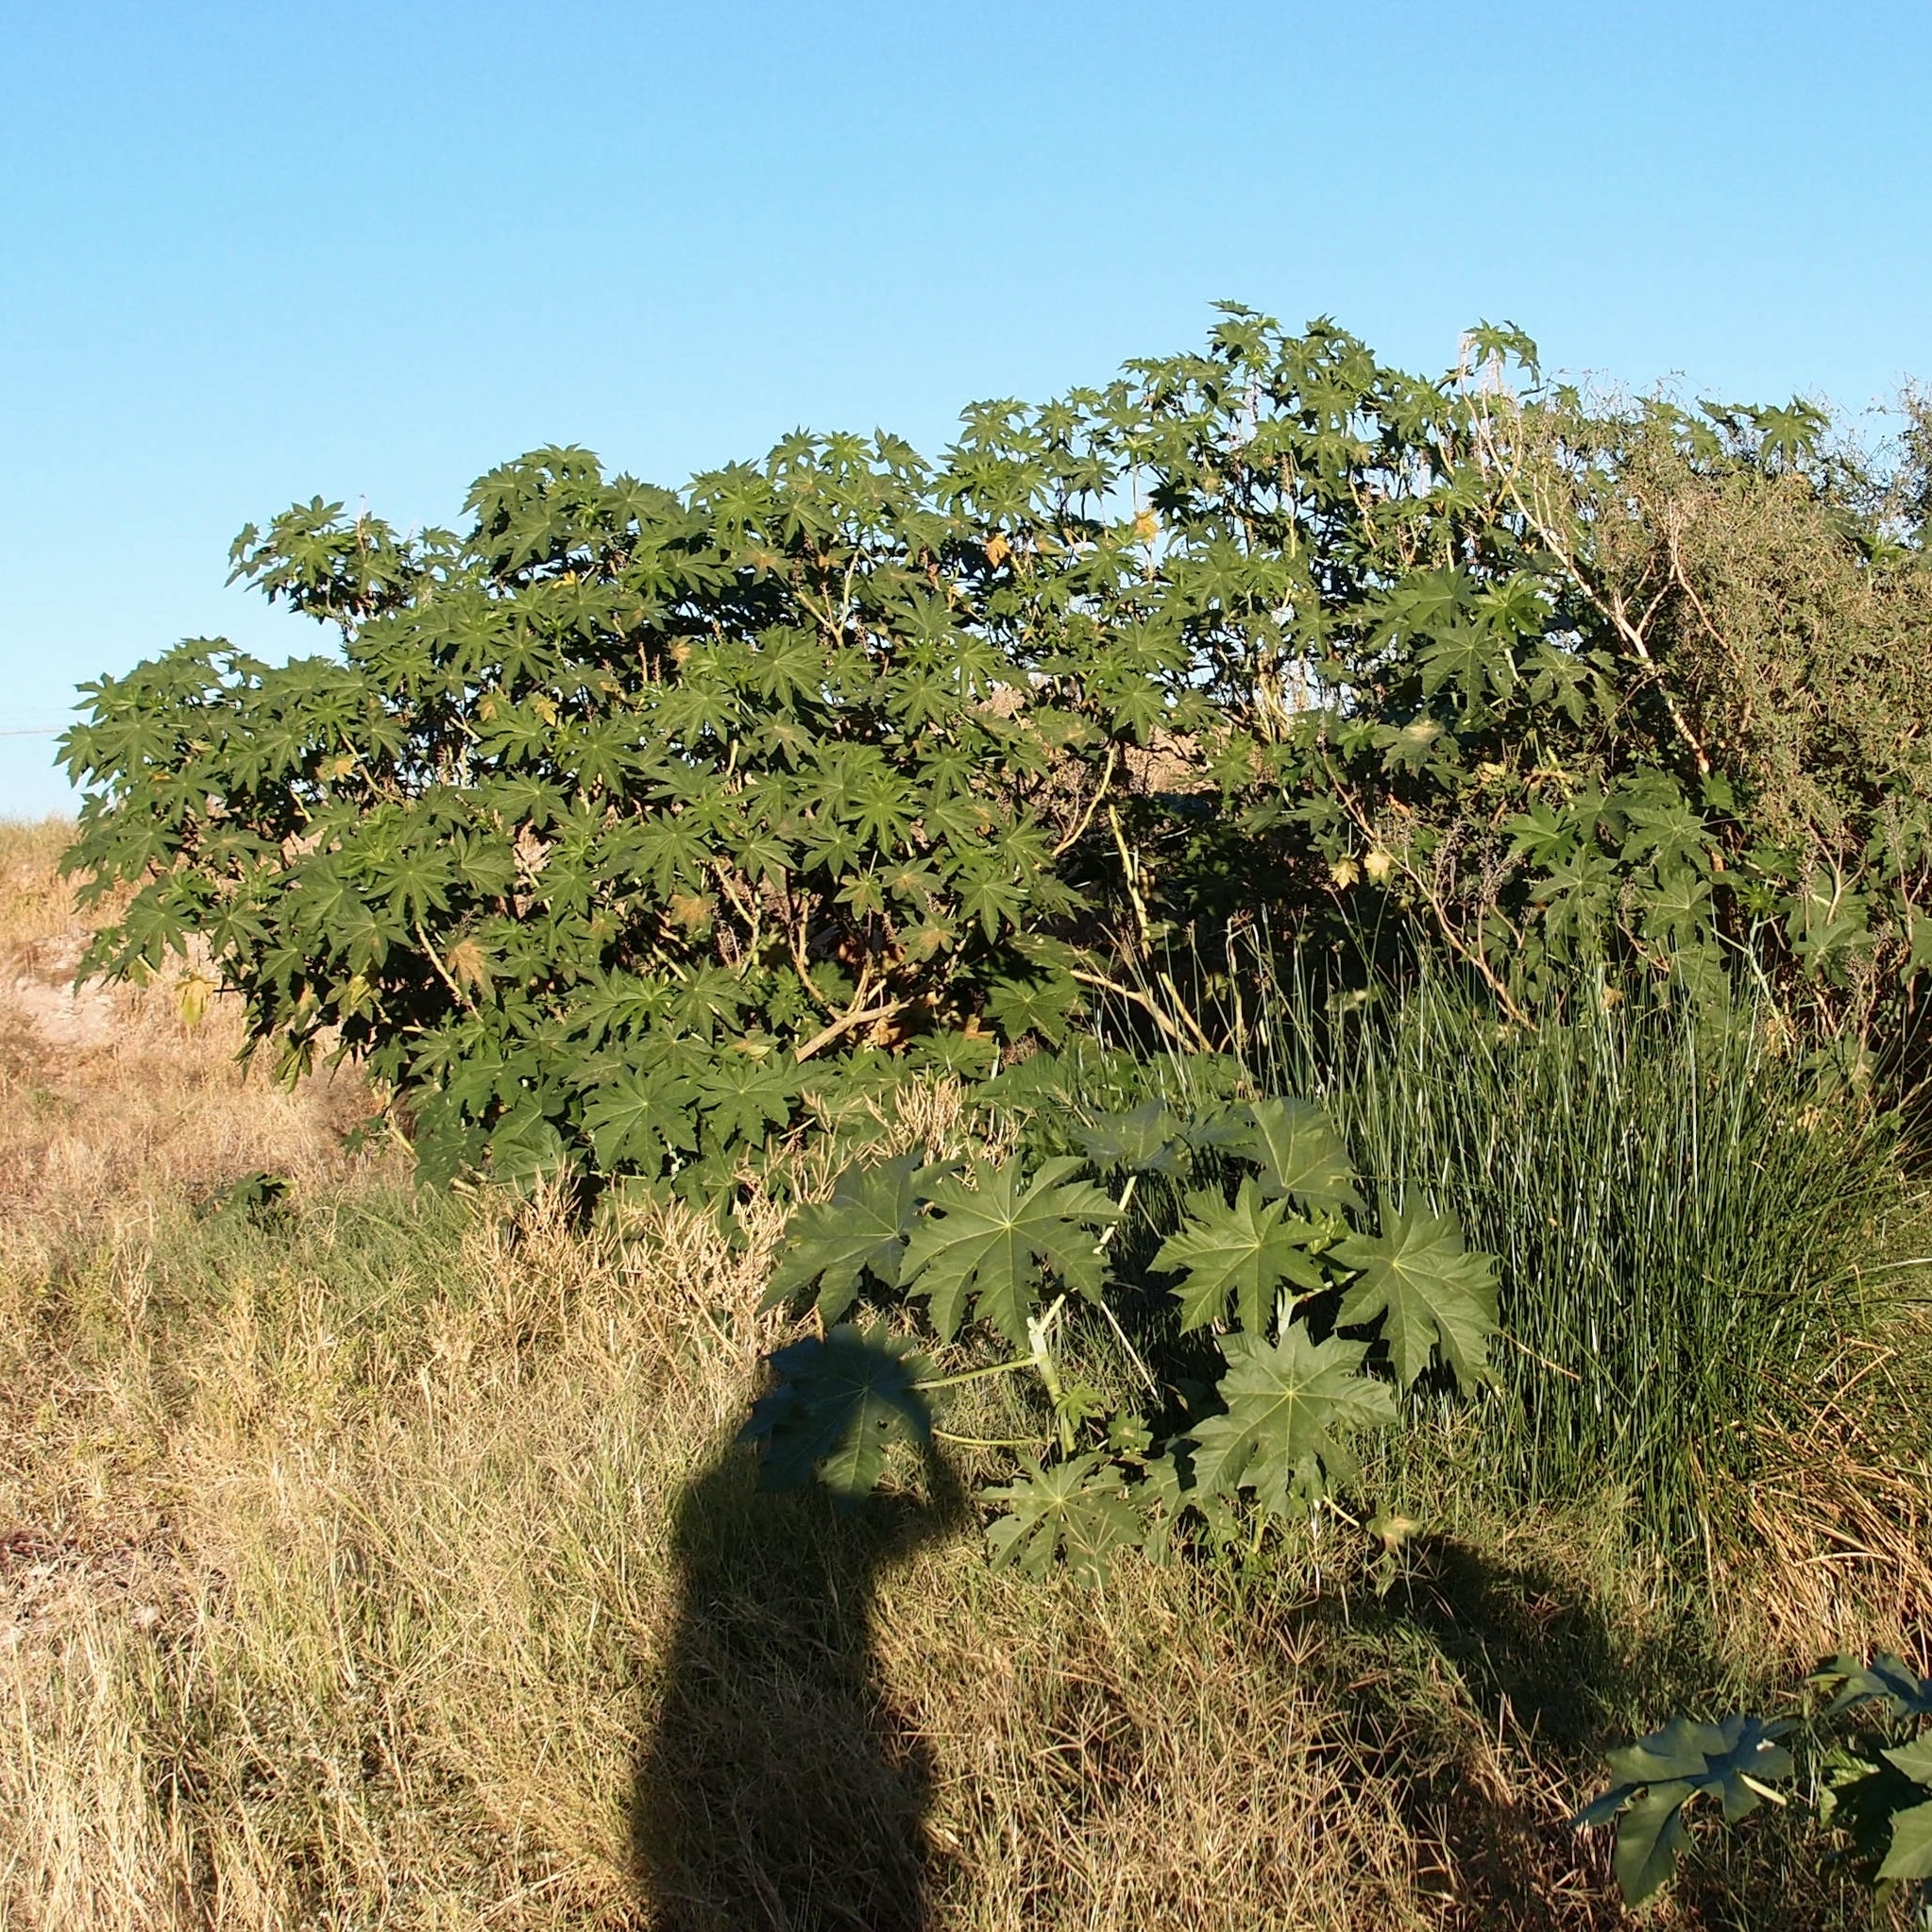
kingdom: Plantae
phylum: Tracheophyta
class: Magnoliopsida
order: Malpighiales
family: Euphorbiaceae
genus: Ricinus
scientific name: Ricinus communis
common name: Castor-oil-plant
